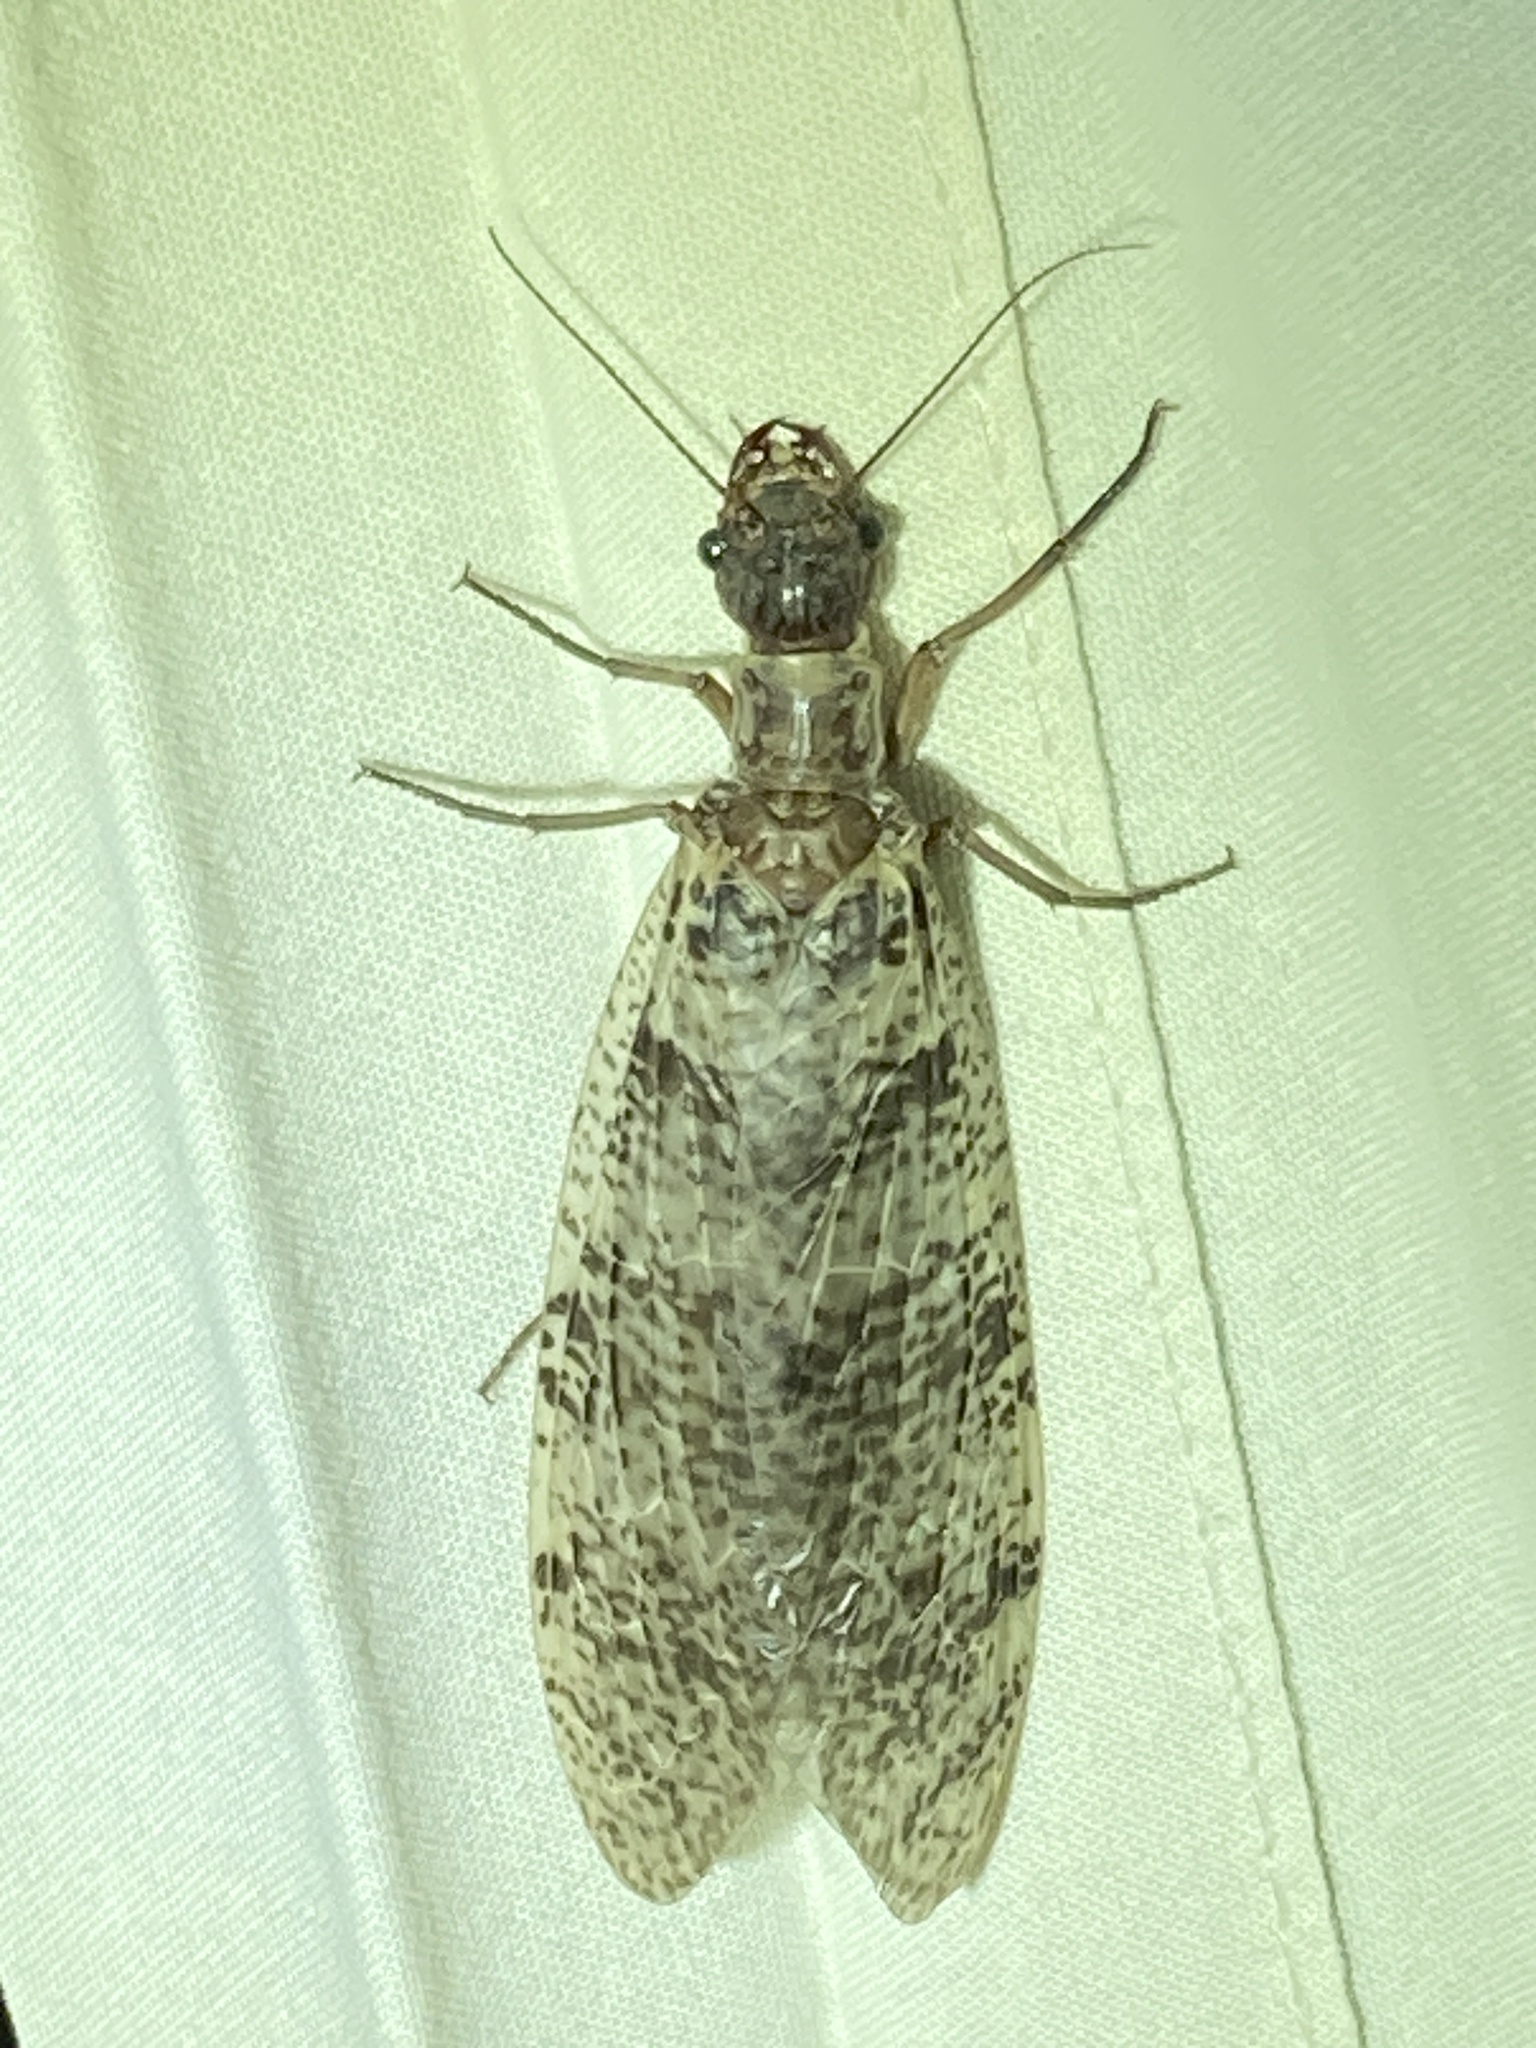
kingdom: Animalia
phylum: Arthropoda
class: Insecta
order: Megaloptera
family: Corydalidae
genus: Orohermes
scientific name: Orohermes crepusculus
